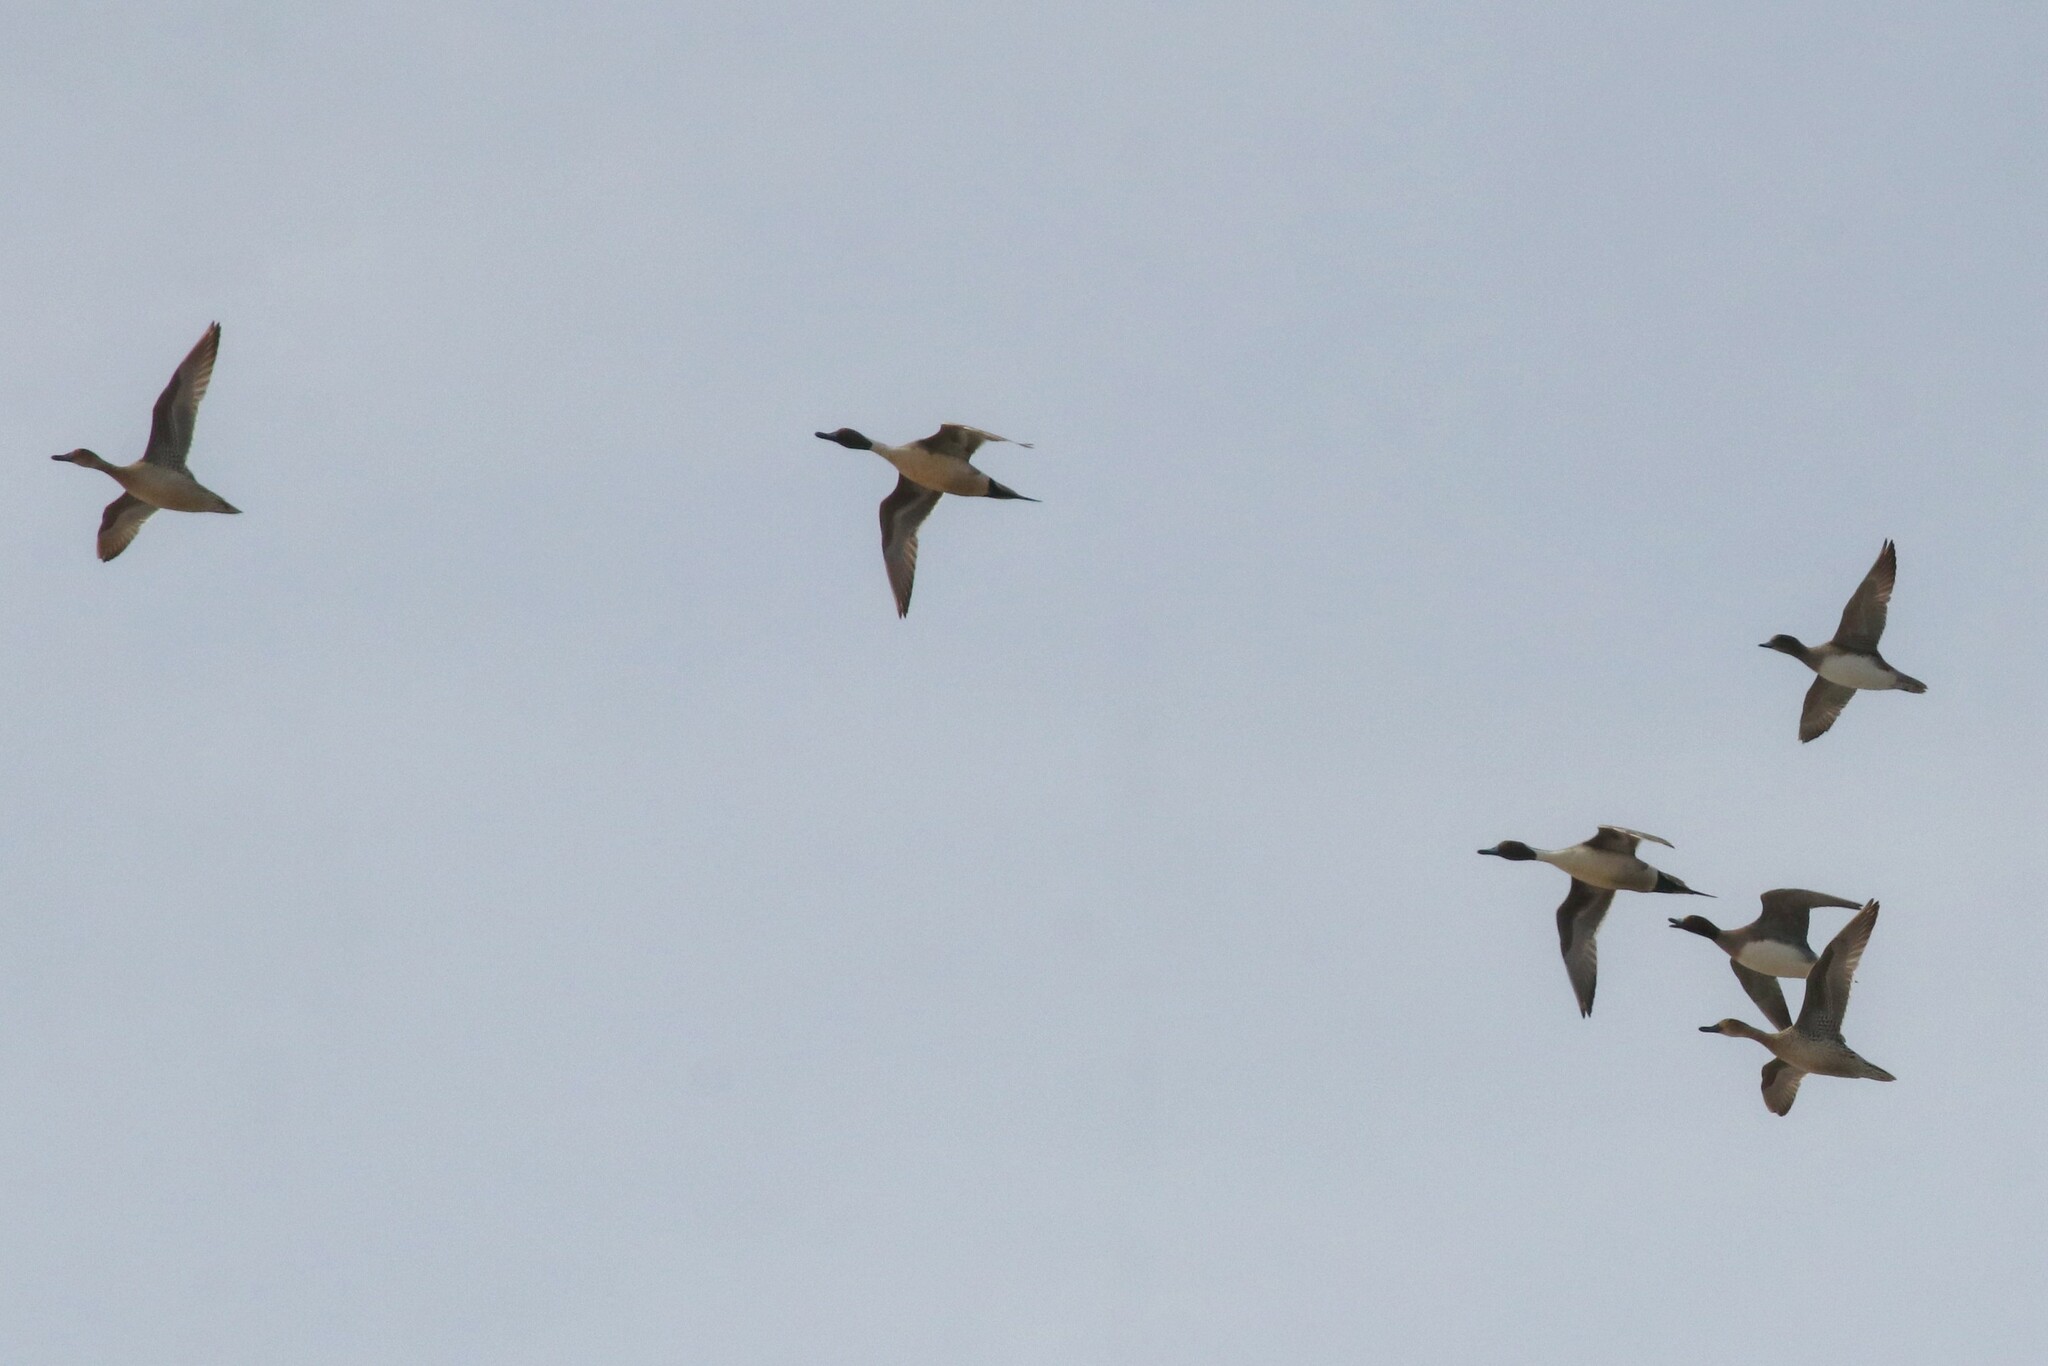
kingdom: Animalia
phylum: Chordata
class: Aves
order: Anseriformes
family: Anatidae
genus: Anas
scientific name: Anas acuta
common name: Northern pintail
